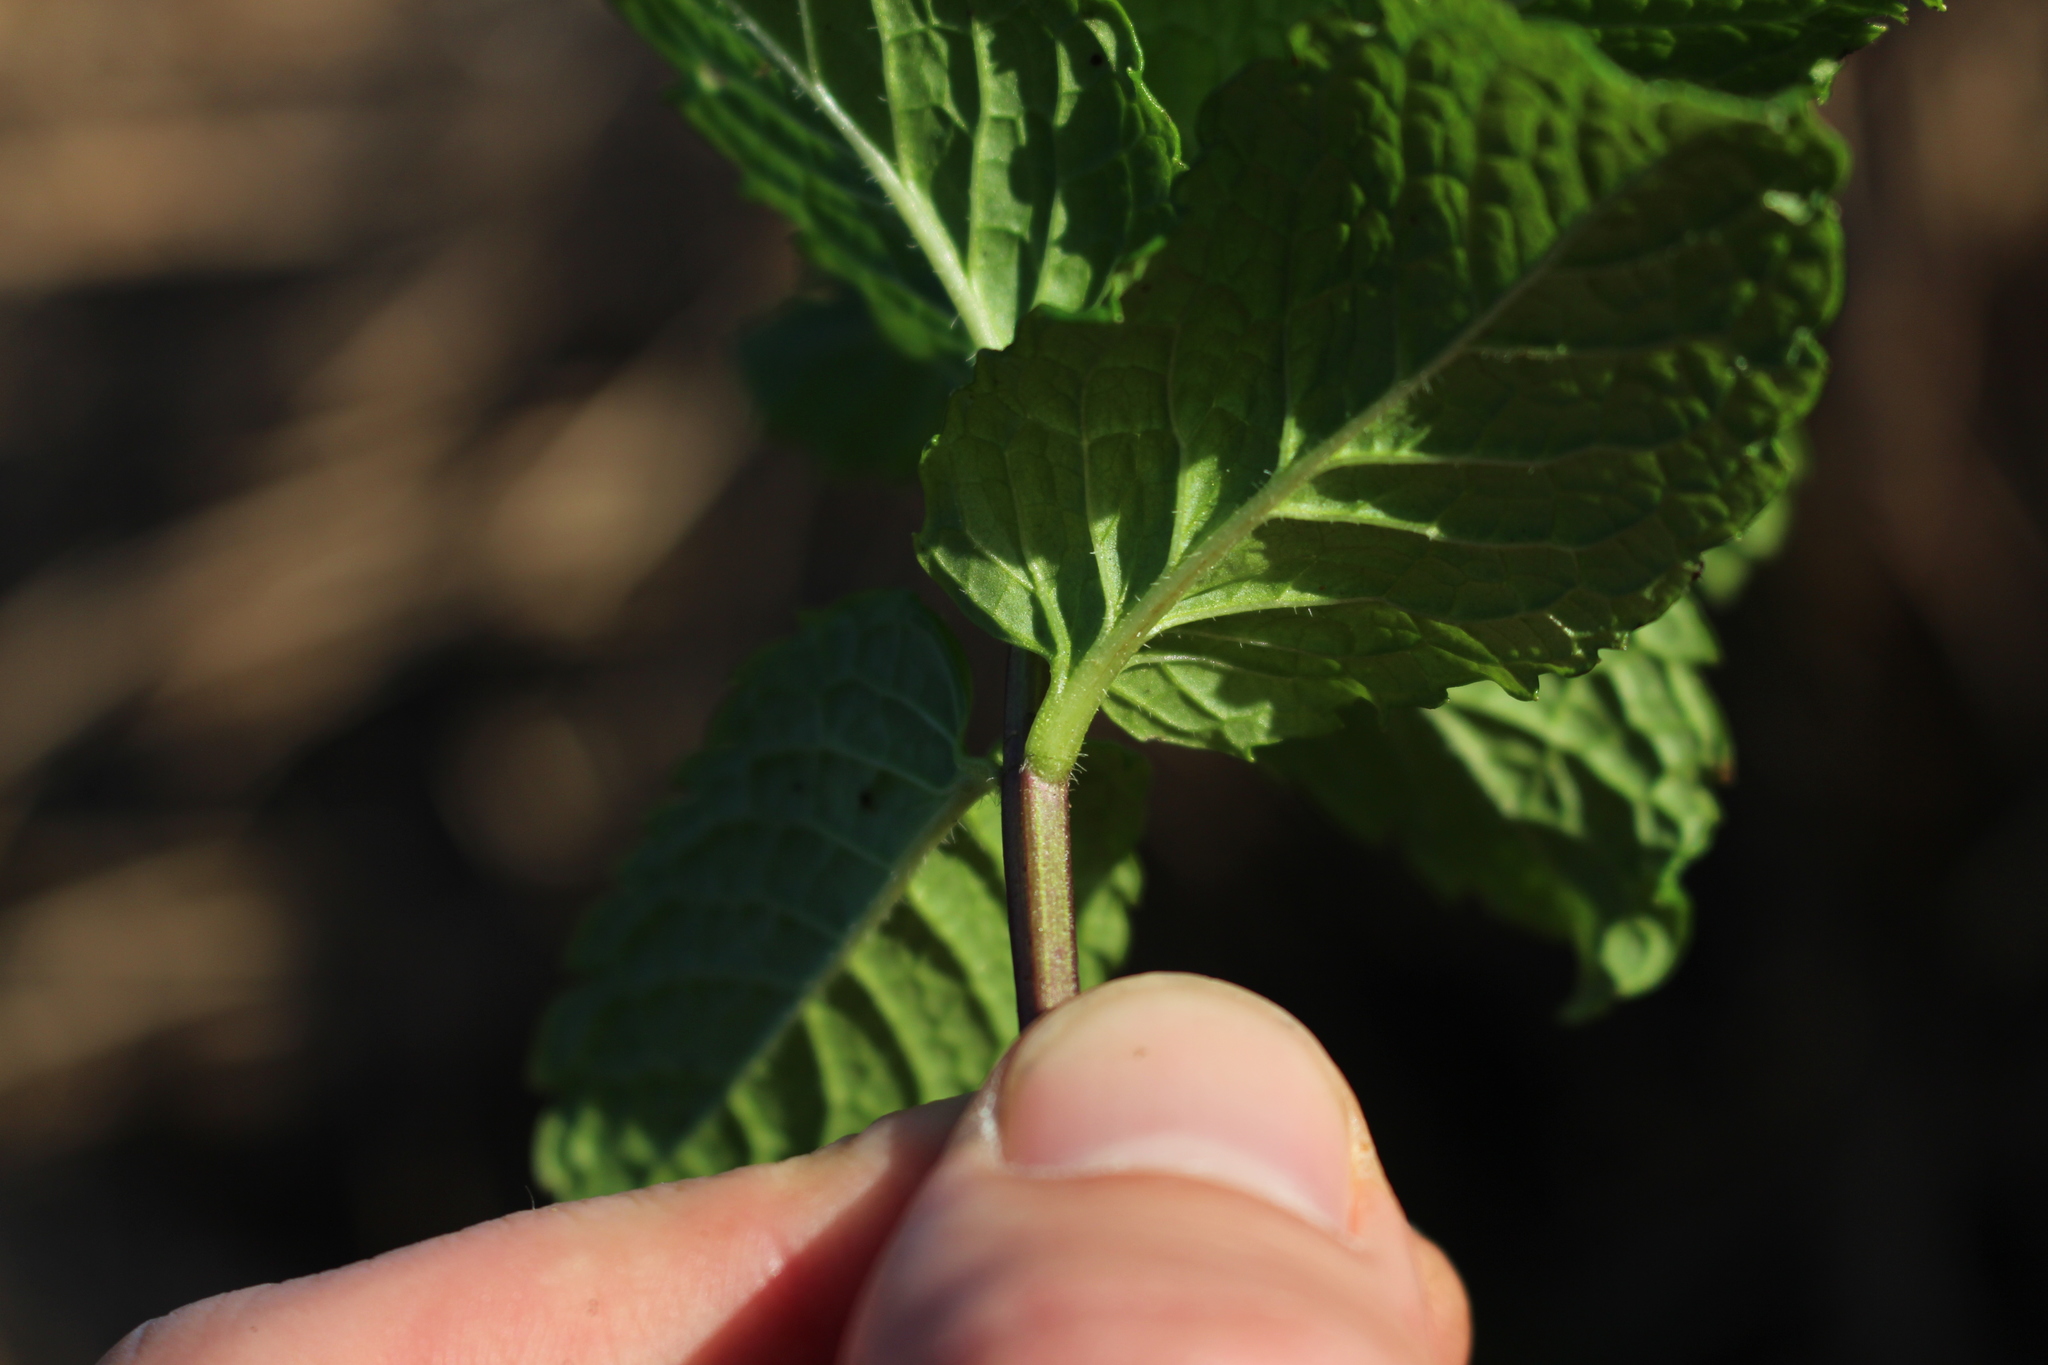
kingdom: Plantae
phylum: Tracheophyta
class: Magnoliopsida
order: Lamiales
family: Lamiaceae
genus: Mentha
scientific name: Mentha spicata
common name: Spearmint
